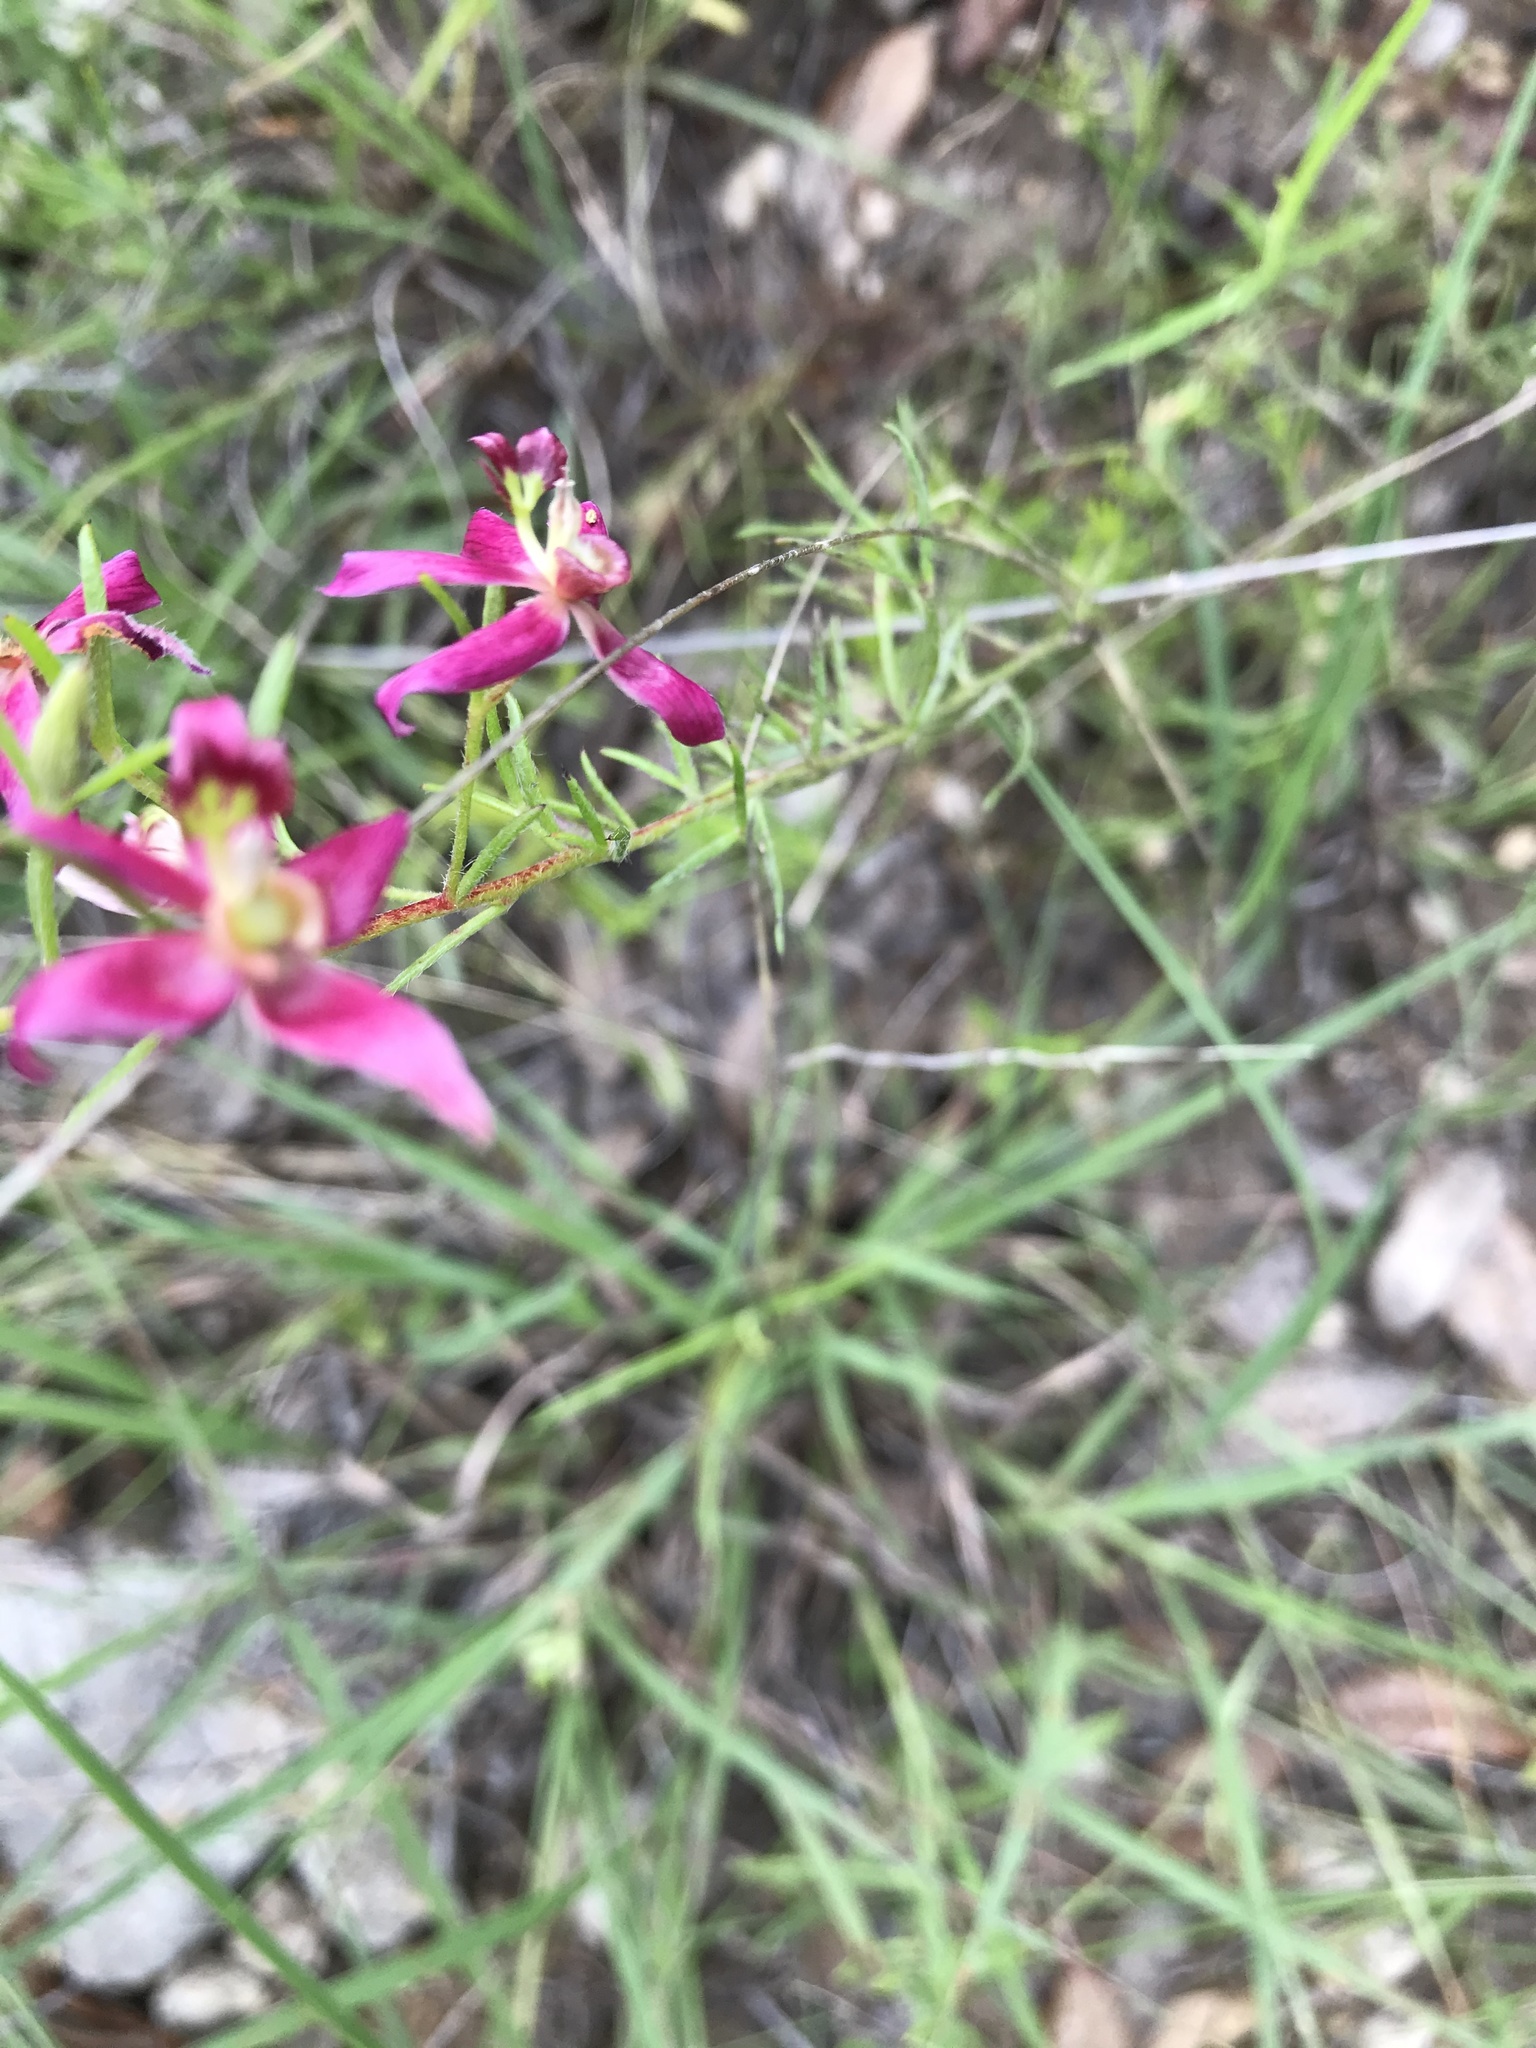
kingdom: Plantae
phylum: Tracheophyta
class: Magnoliopsida
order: Zygophyllales
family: Krameriaceae
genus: Krameria
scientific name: Krameria lanceolata
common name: Ratany
